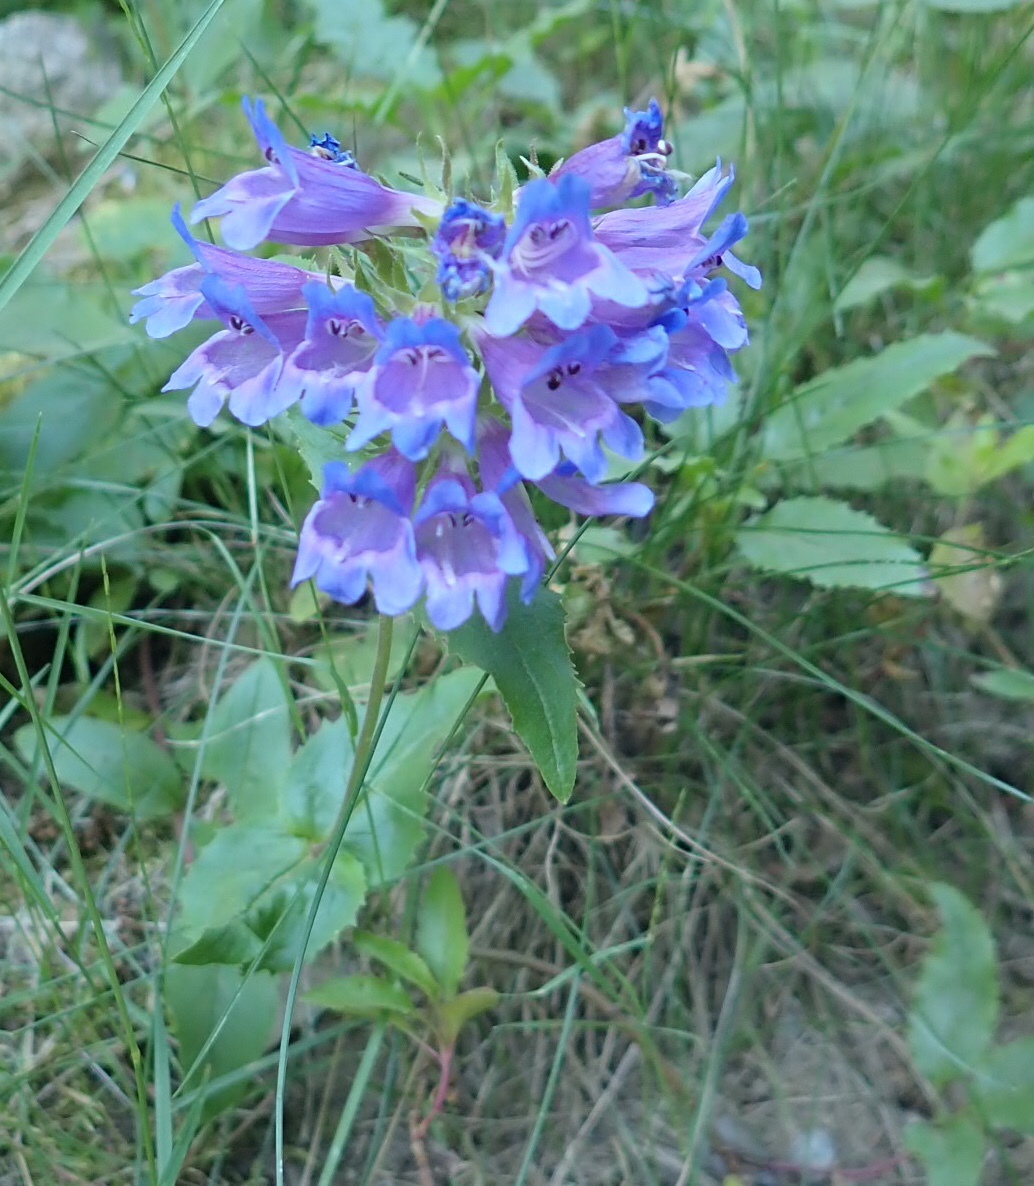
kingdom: Plantae
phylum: Tracheophyta
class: Magnoliopsida
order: Lamiales
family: Plantaginaceae
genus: Penstemon
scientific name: Penstemon serrulatus
